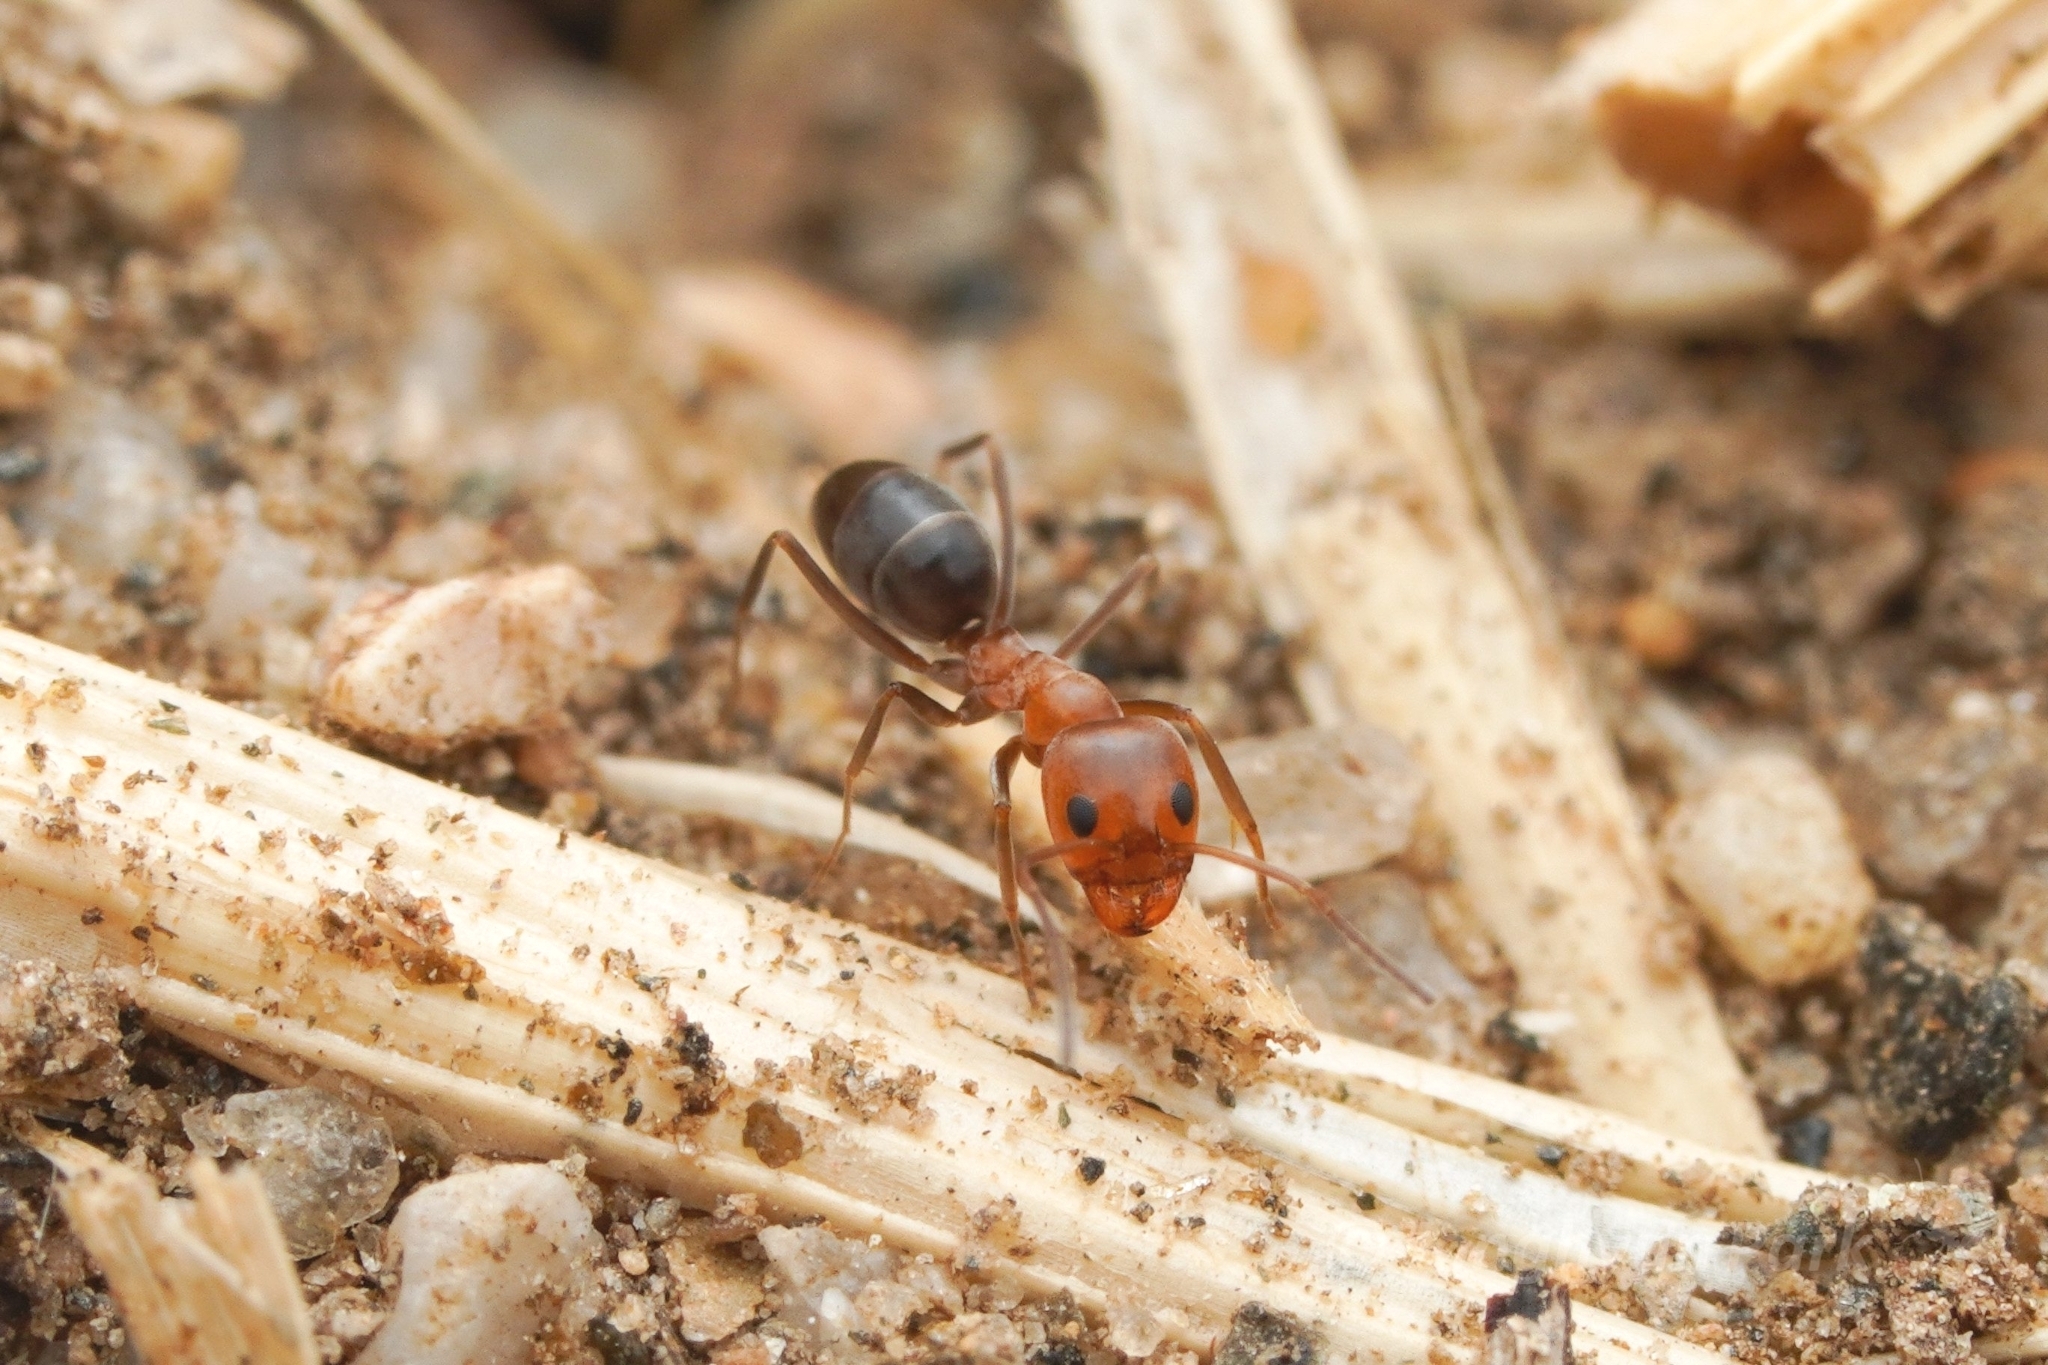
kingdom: Animalia
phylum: Arthropoda
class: Insecta
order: Hymenoptera
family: Formicidae
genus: Dorymyrmex
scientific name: Dorymyrmex bicolor
